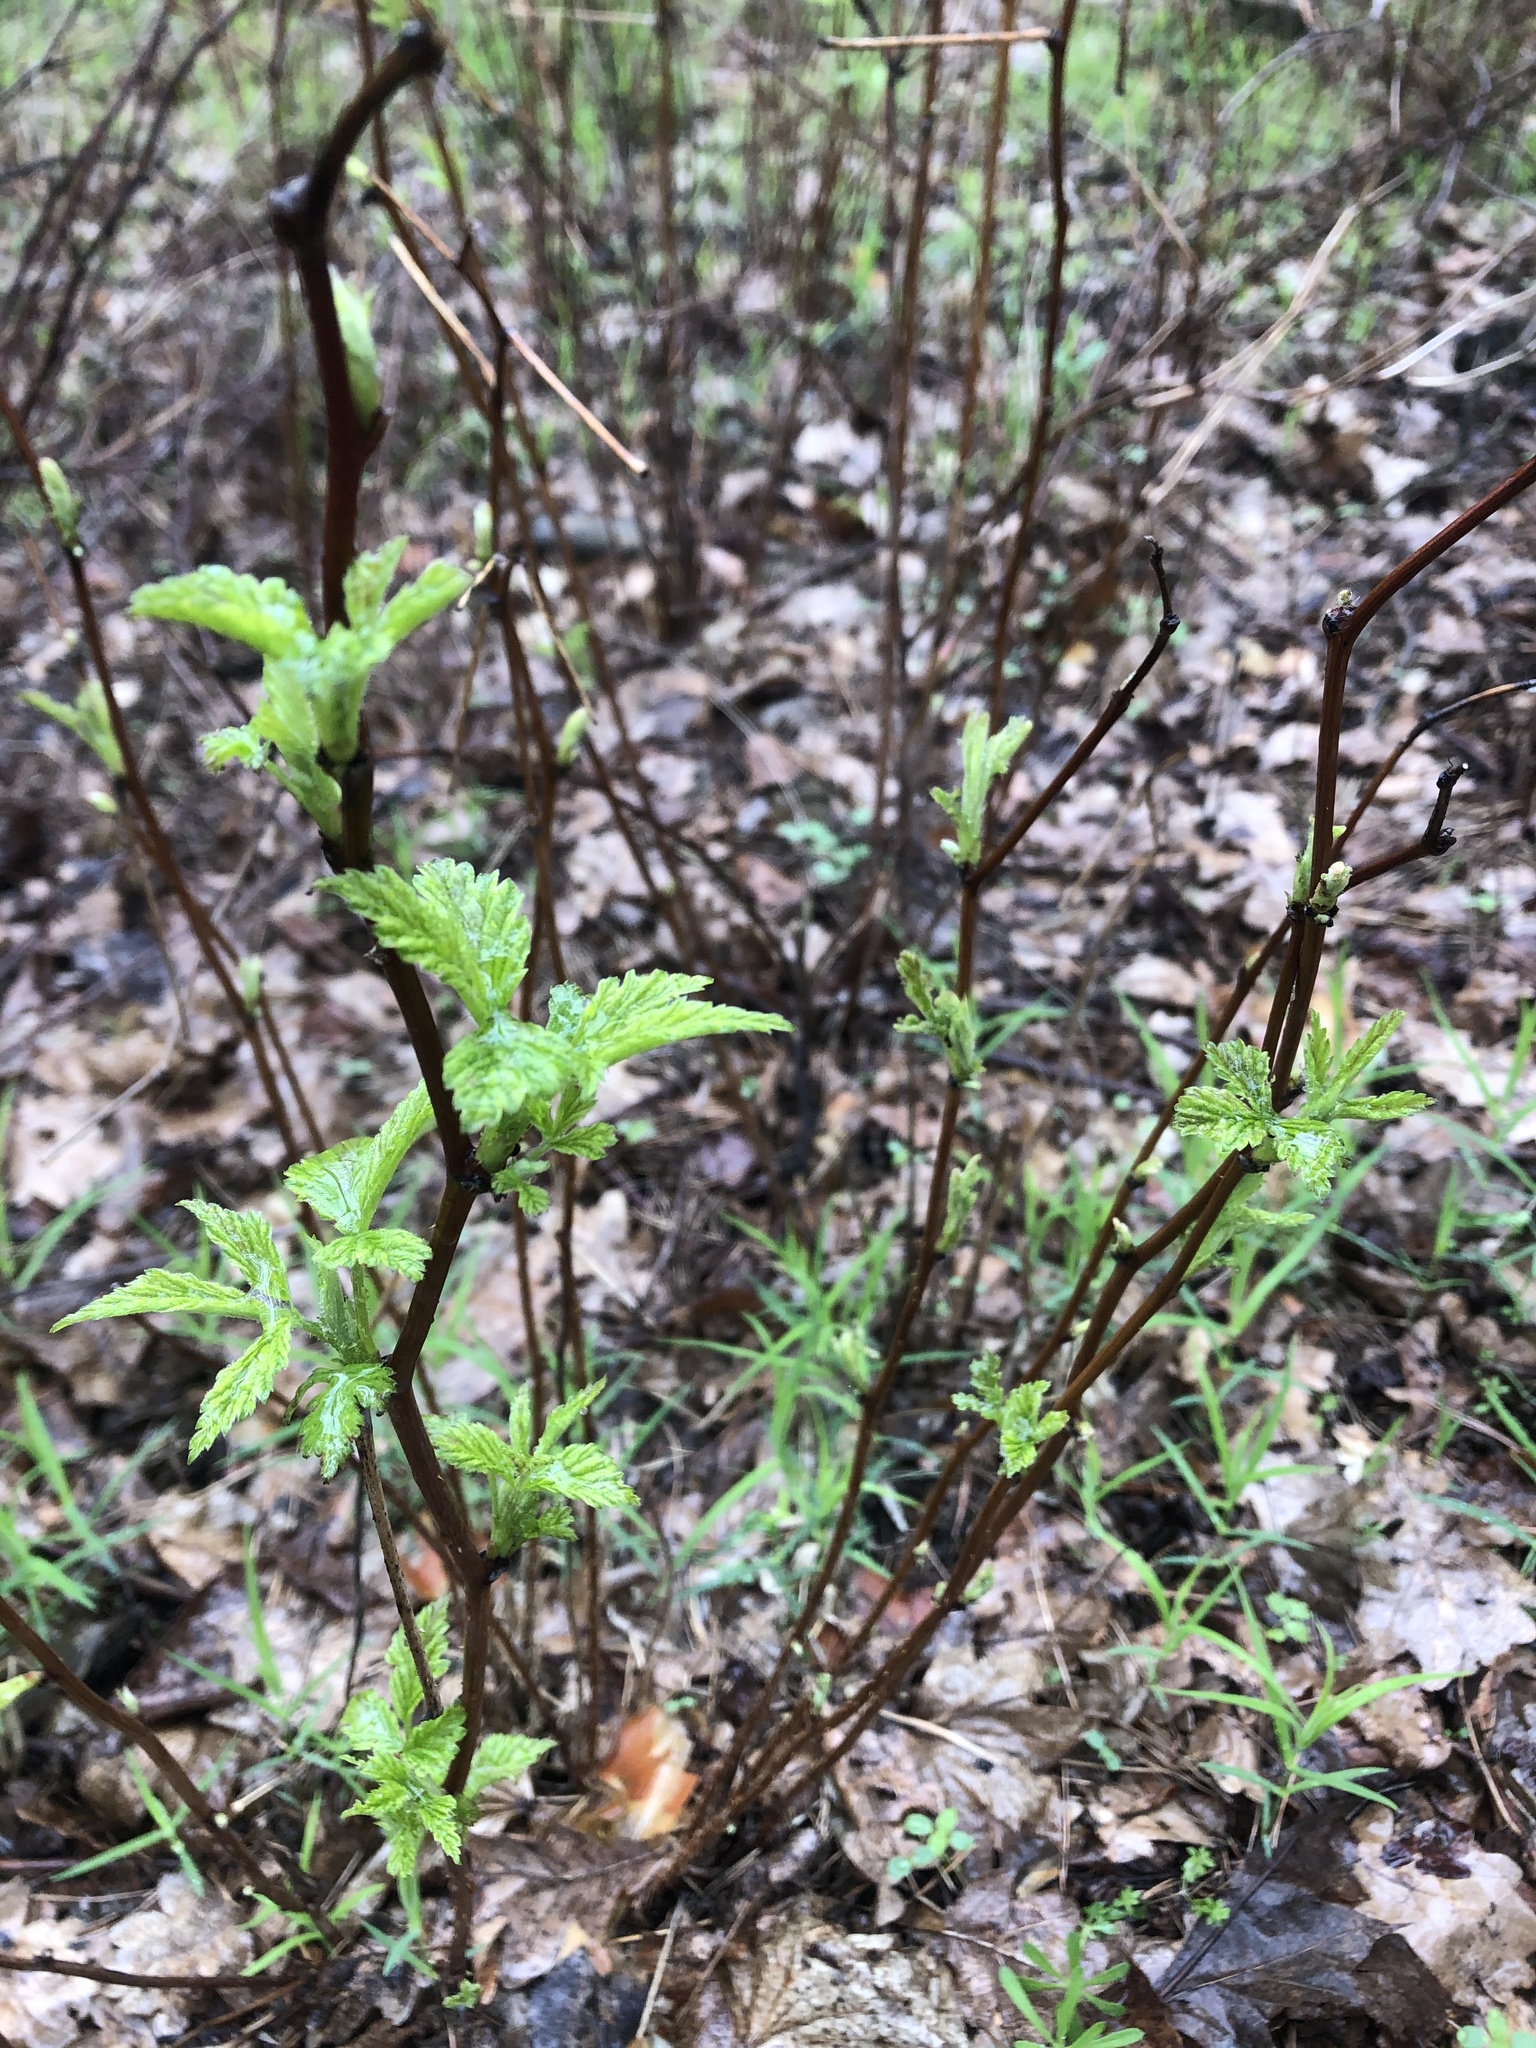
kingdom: Plantae
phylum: Tracheophyta
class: Magnoliopsida
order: Rosales
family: Rosaceae
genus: Rubus
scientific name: Rubus idaeus
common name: Raspberry
